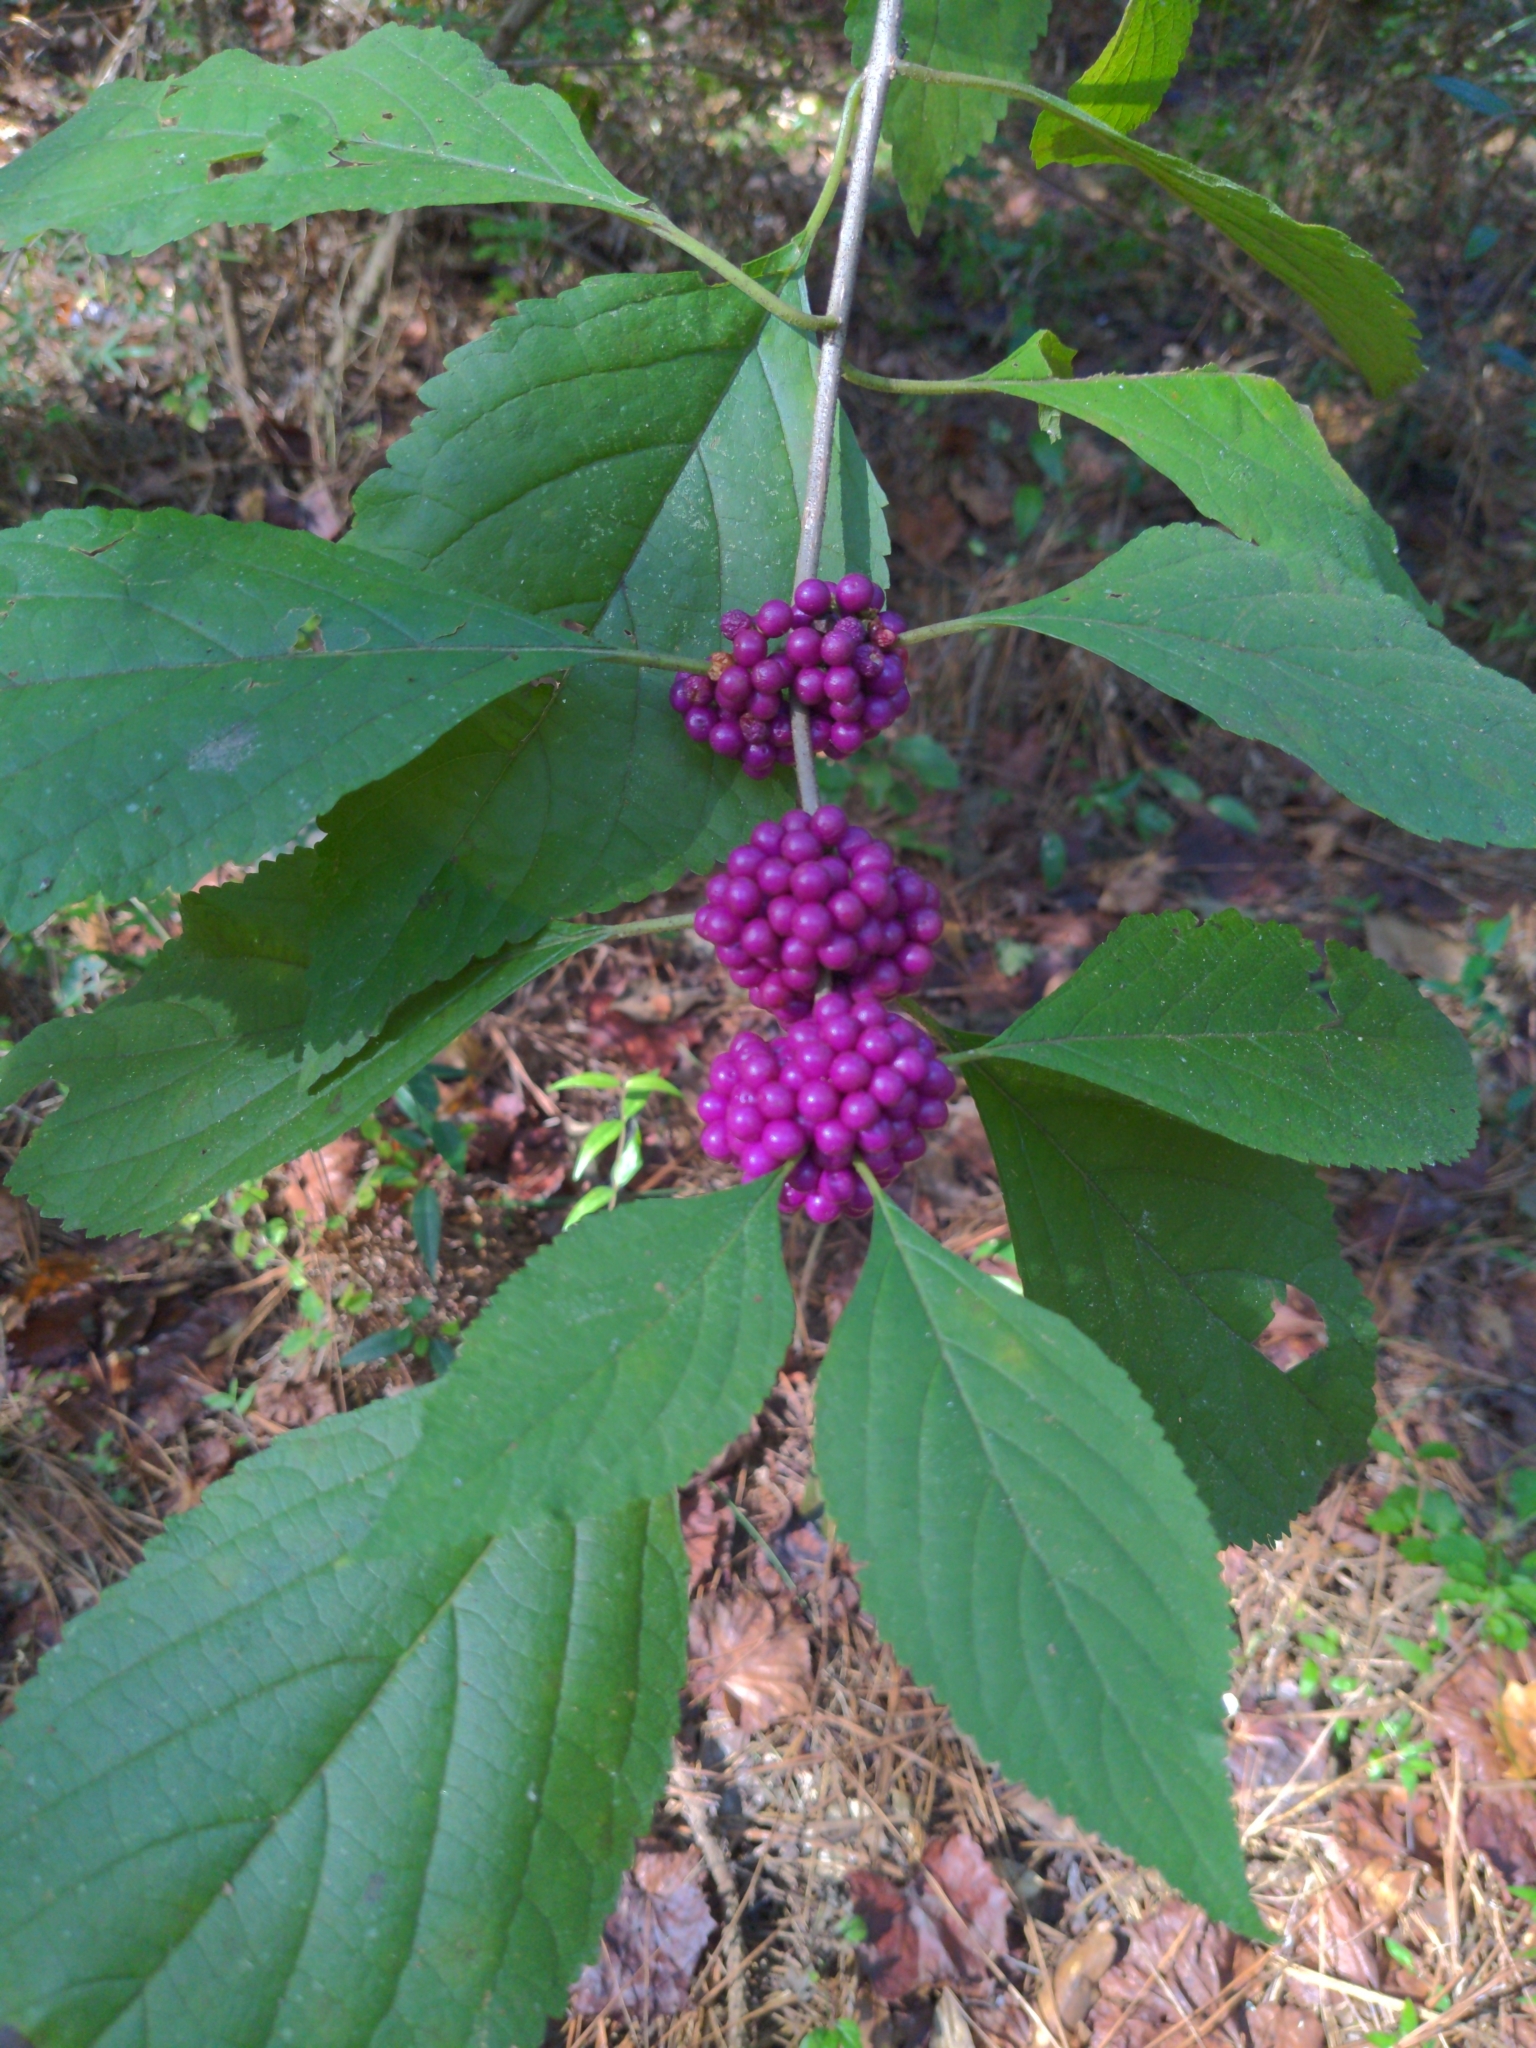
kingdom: Plantae
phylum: Tracheophyta
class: Magnoliopsida
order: Lamiales
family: Lamiaceae
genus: Callicarpa
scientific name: Callicarpa americana
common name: American beautyberry
